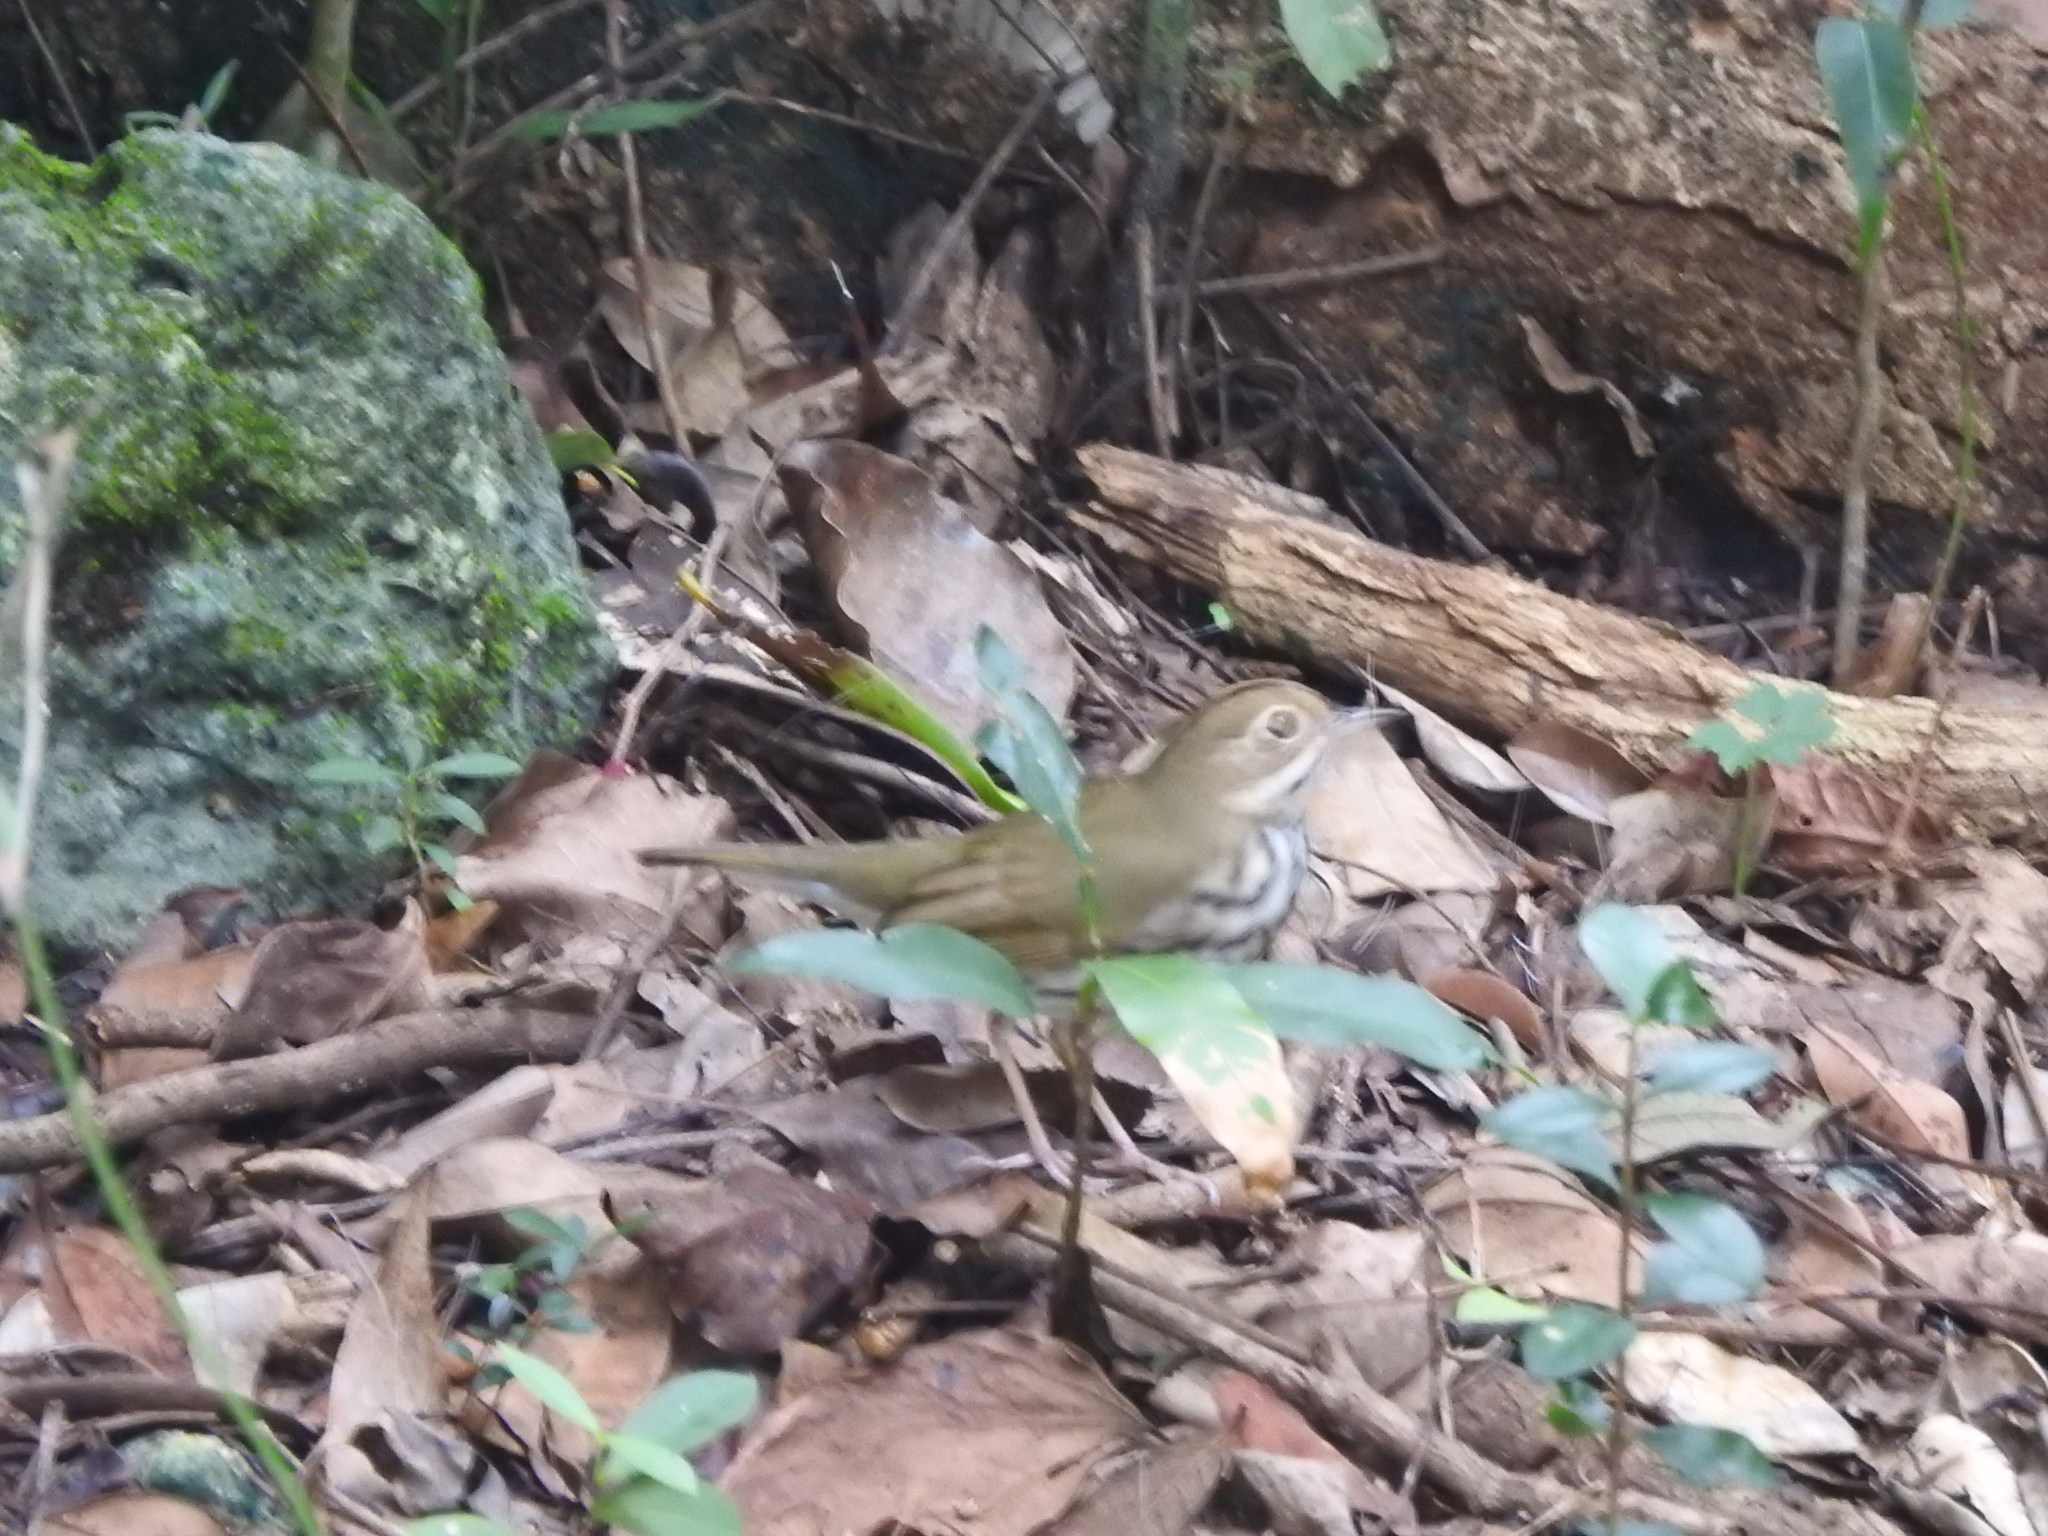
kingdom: Animalia
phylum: Chordata
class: Aves
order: Passeriformes
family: Parulidae
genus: Seiurus
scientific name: Seiurus aurocapilla
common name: Ovenbird
